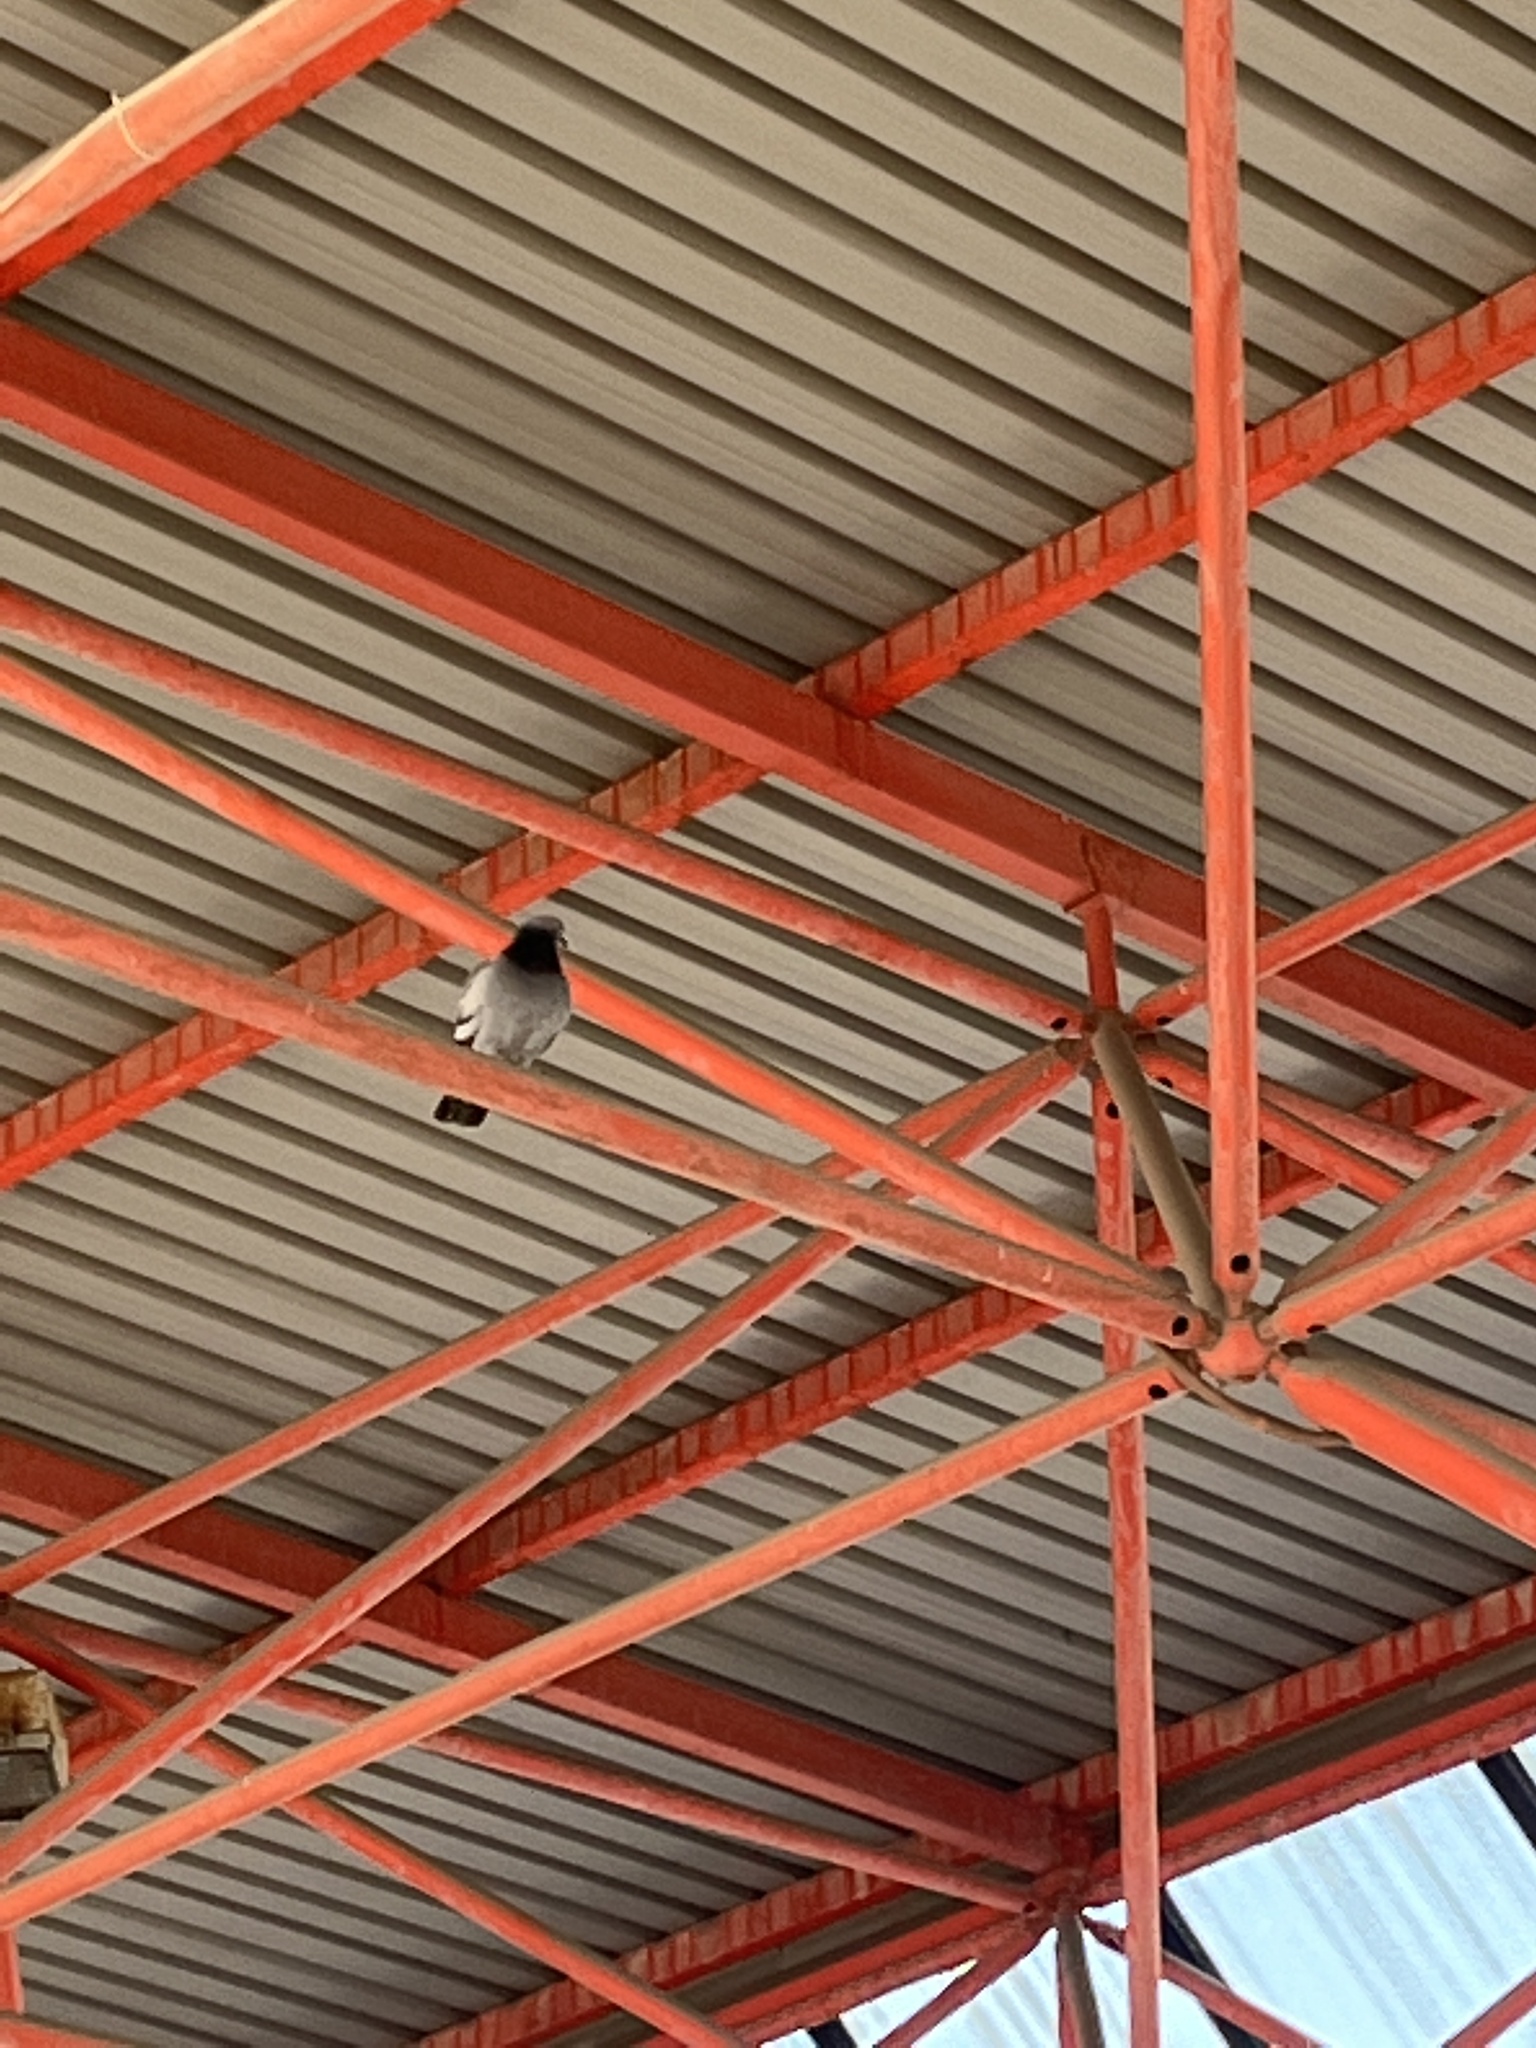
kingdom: Animalia
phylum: Chordata
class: Aves
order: Columbiformes
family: Columbidae
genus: Columba
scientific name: Columba livia
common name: Rock pigeon
